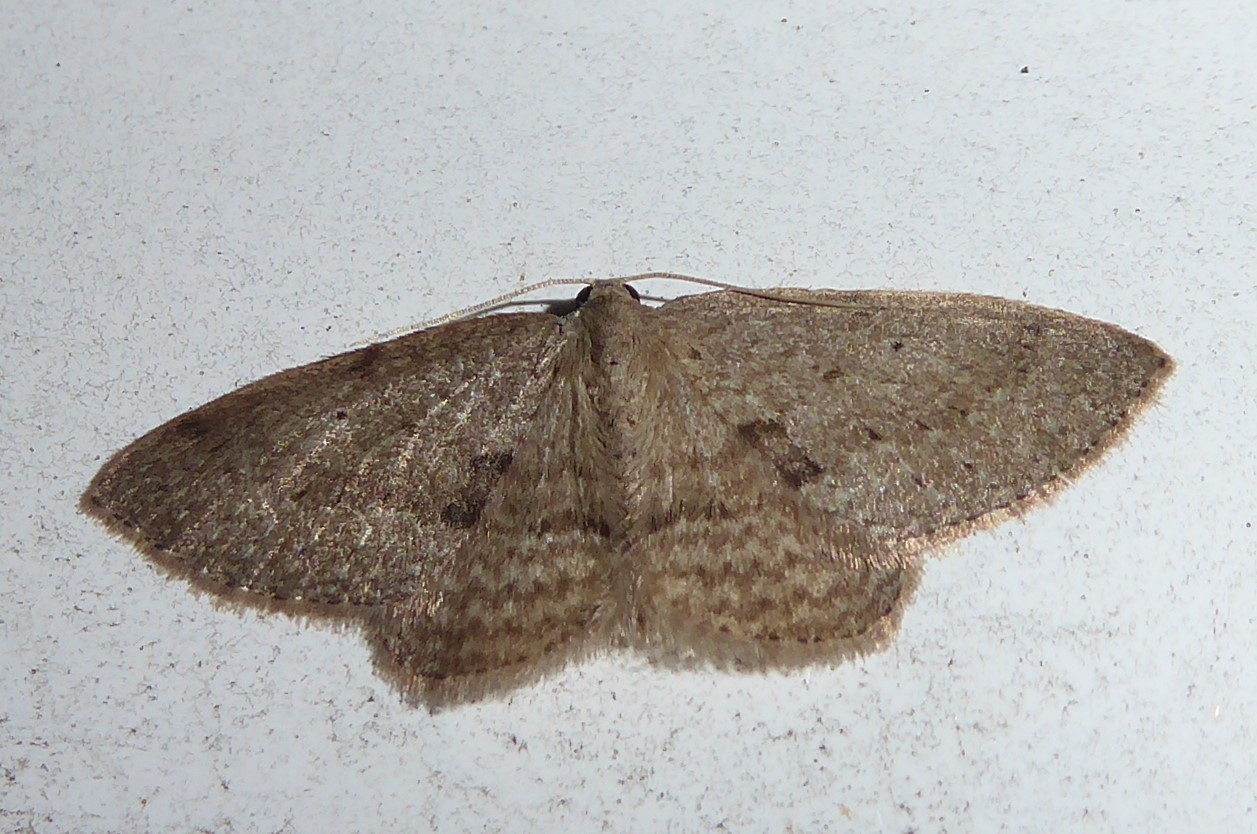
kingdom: Animalia
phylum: Arthropoda
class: Insecta
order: Lepidoptera
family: Geometridae
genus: Poecilasthena
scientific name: Poecilasthena schistaria
